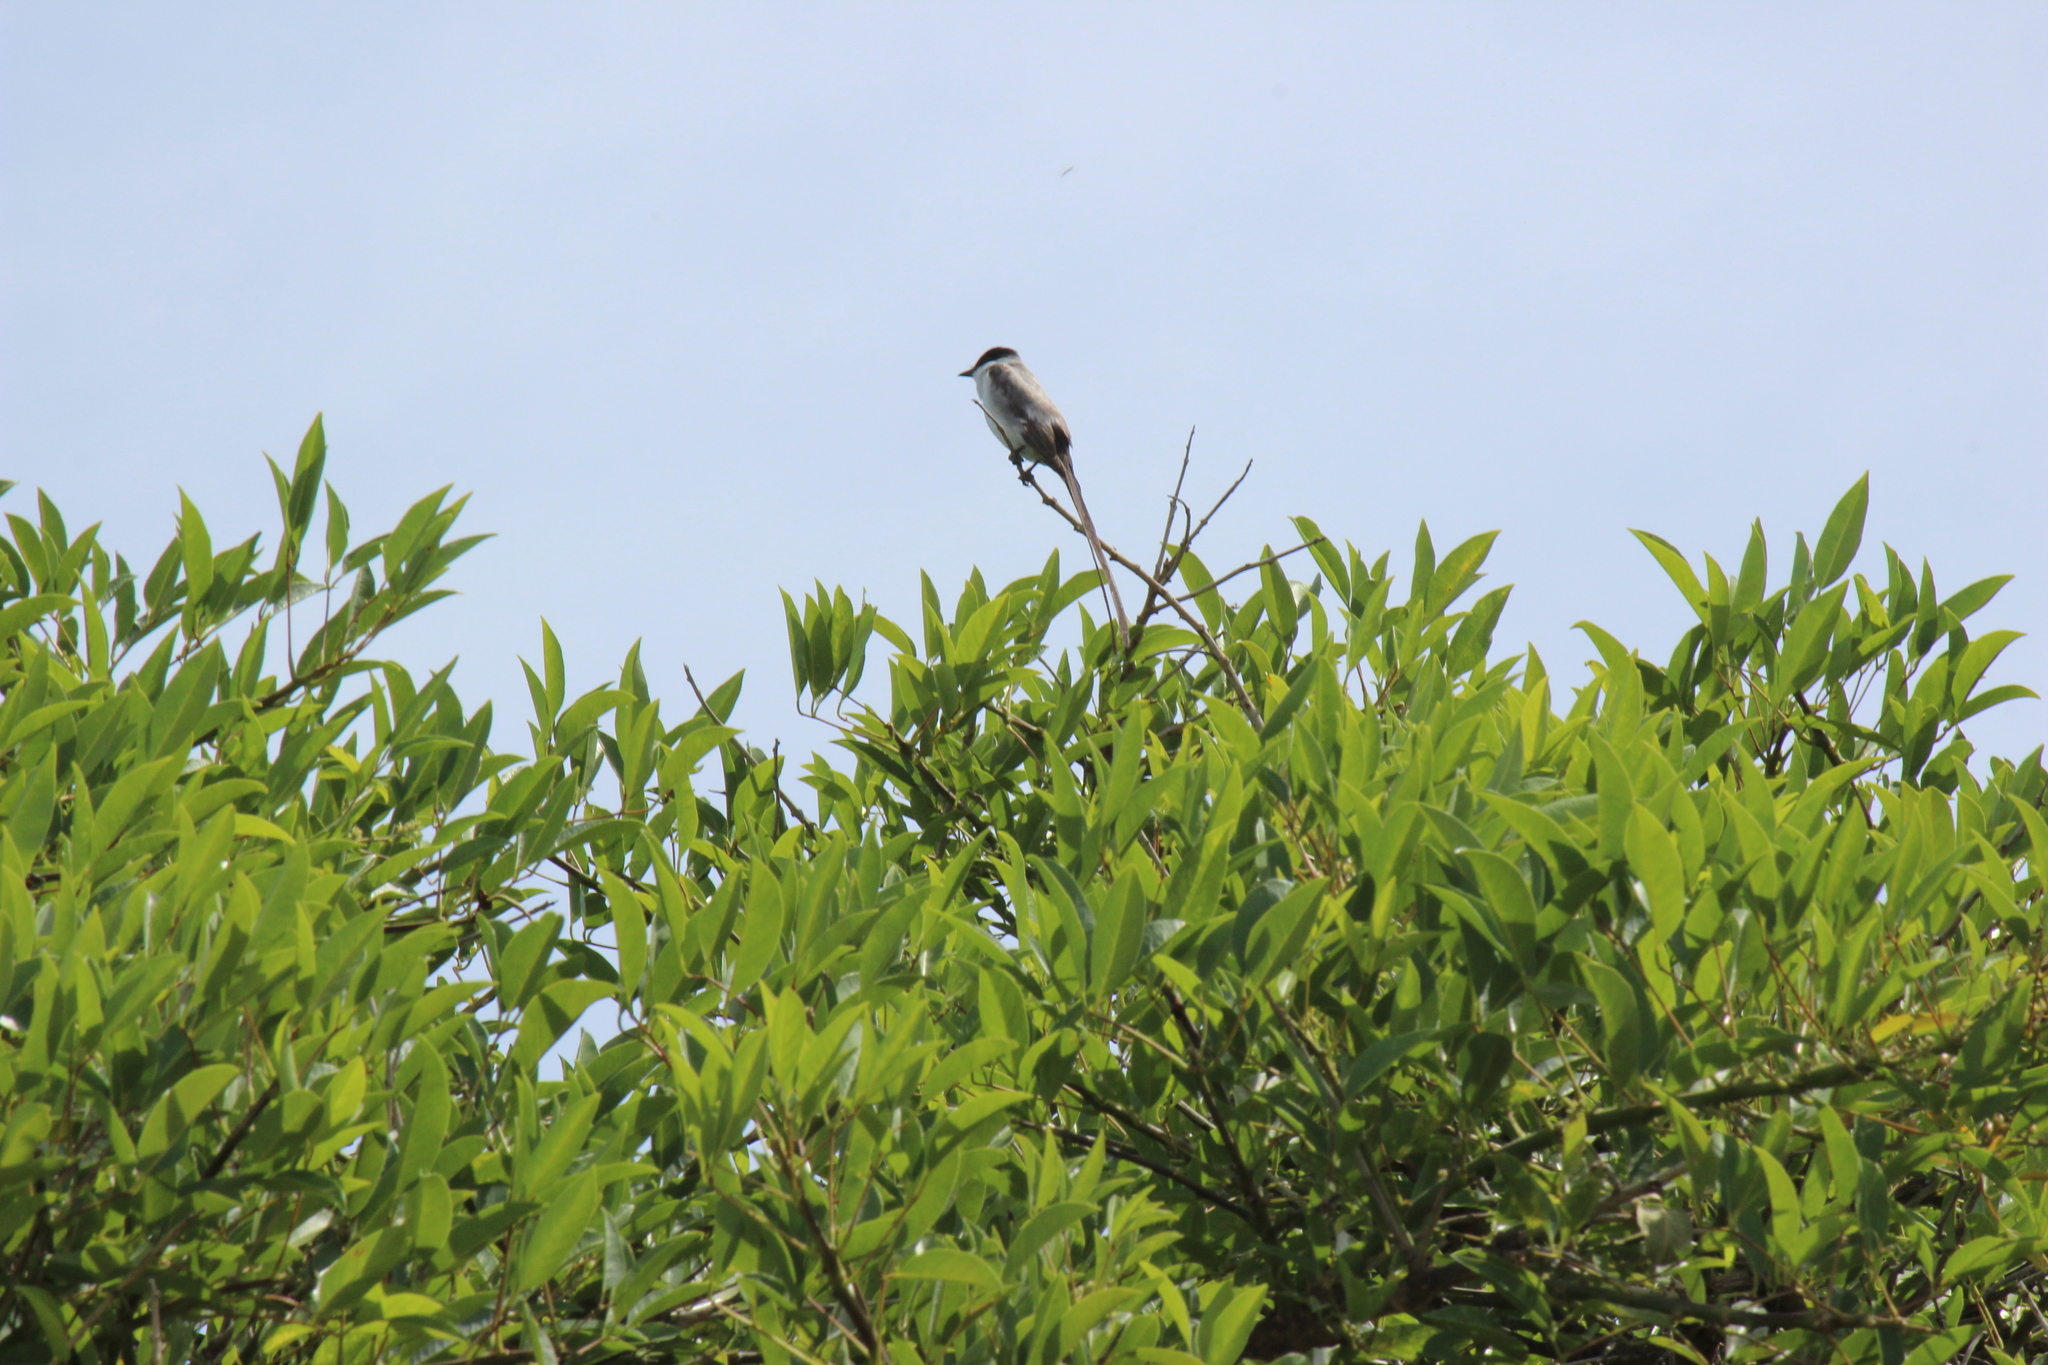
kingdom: Animalia
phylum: Chordata
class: Aves
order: Passeriformes
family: Tyrannidae
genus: Tyrannus
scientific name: Tyrannus savana
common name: Fork-tailed flycatcher
